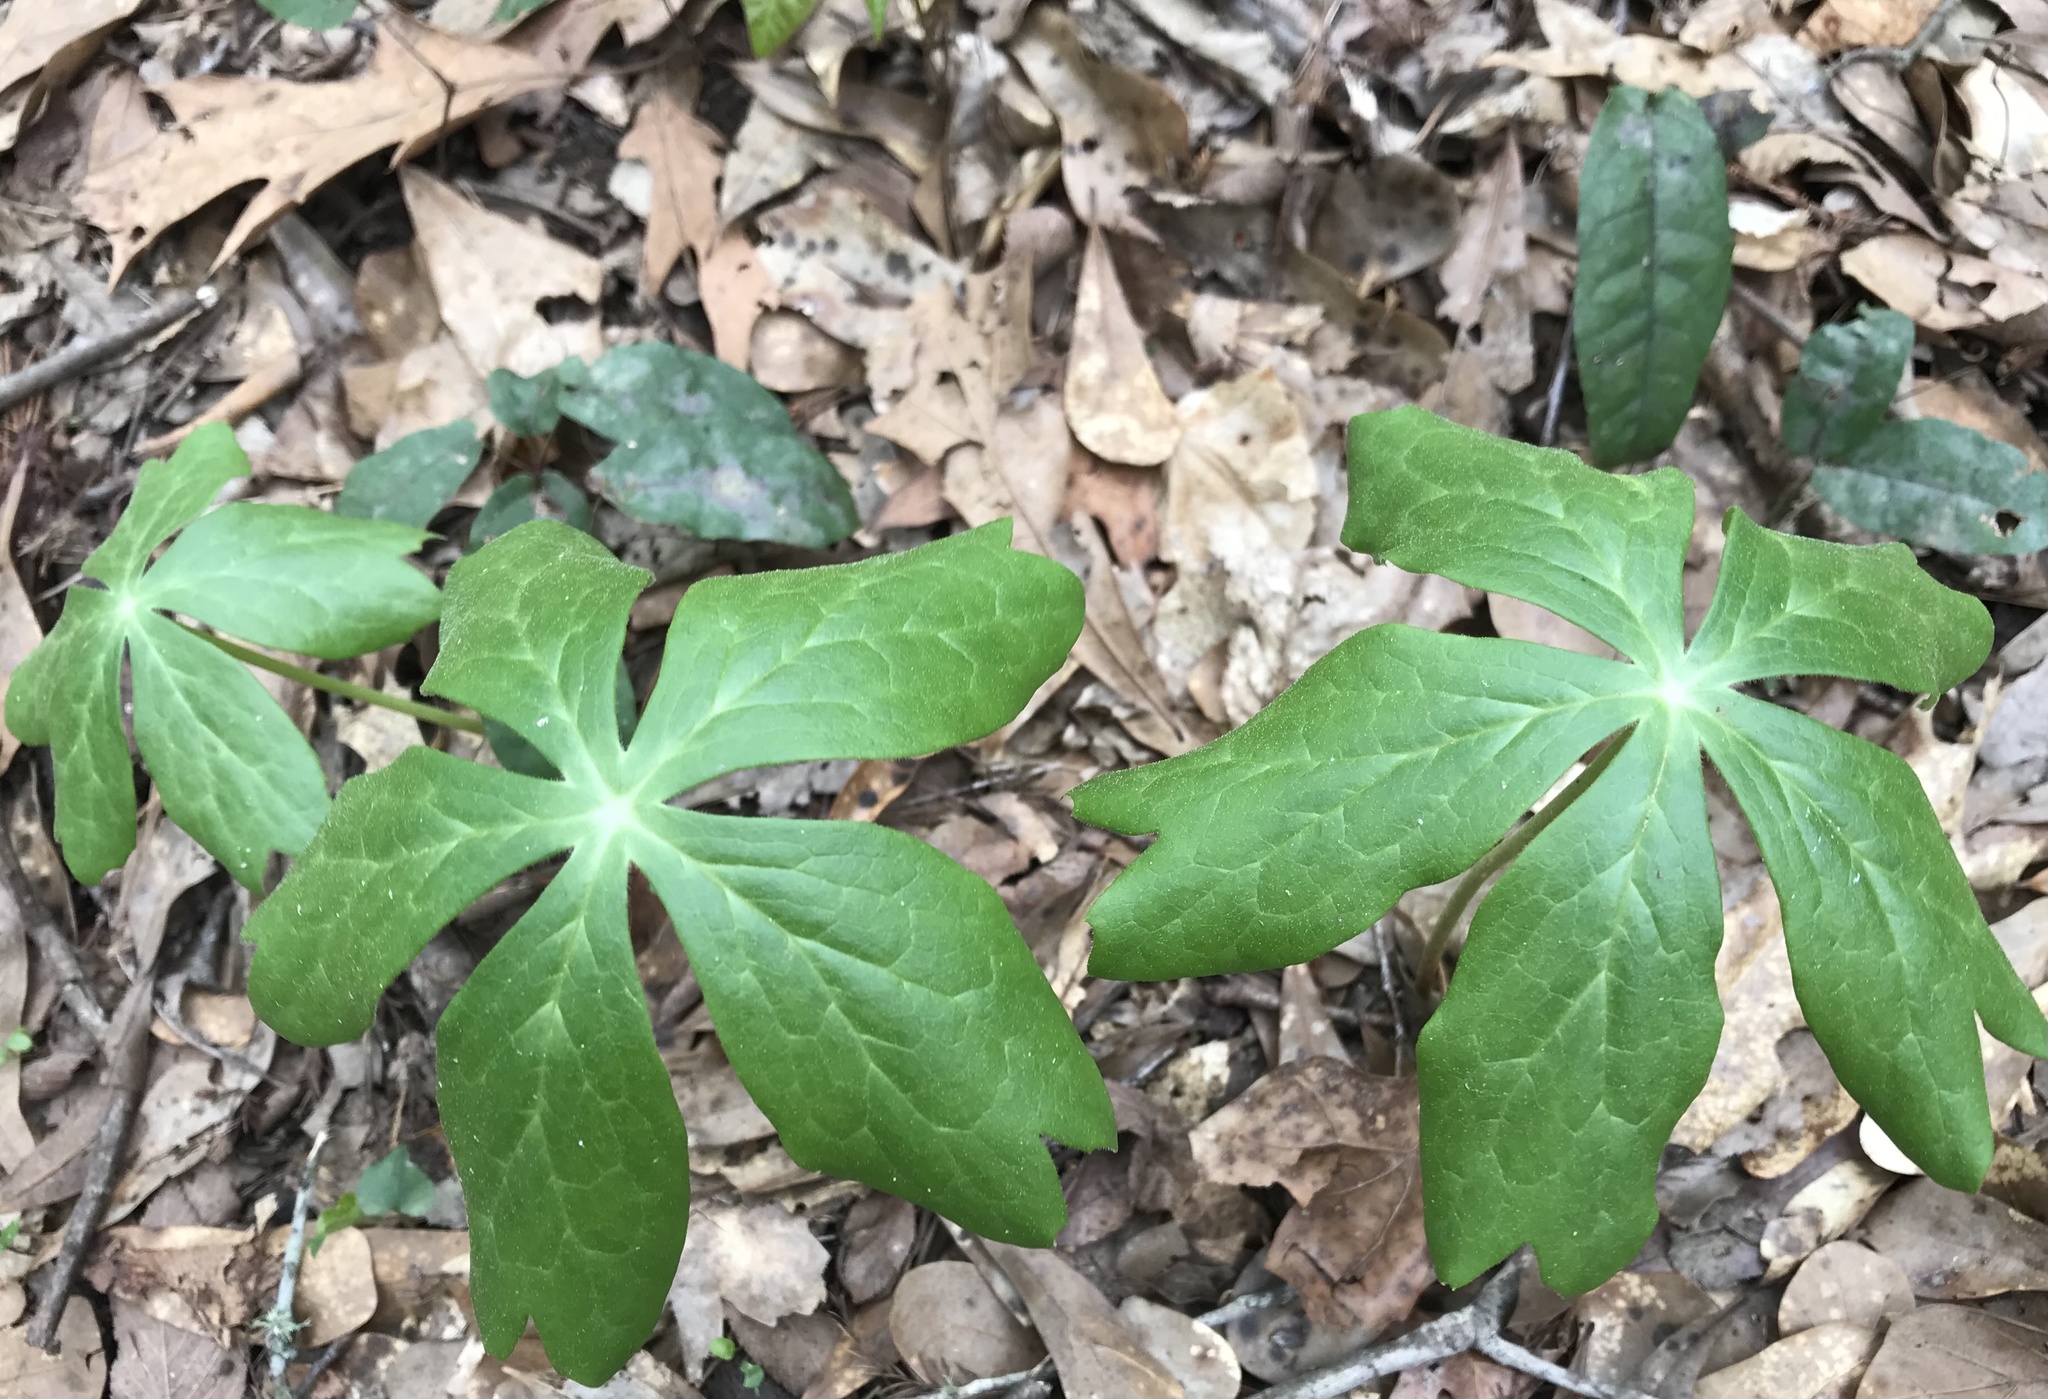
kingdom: Plantae
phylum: Tracheophyta
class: Magnoliopsida
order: Ranunculales
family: Berberidaceae
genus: Podophyllum
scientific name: Podophyllum peltatum
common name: Wild mandrake
